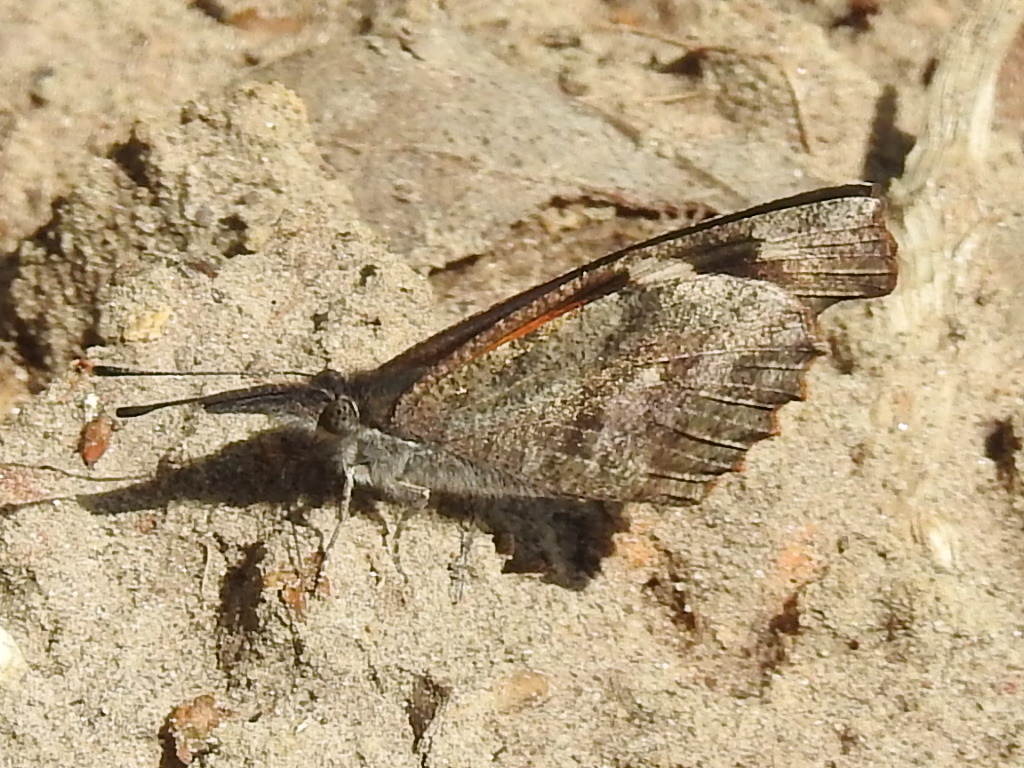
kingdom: Animalia
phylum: Arthropoda
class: Insecta
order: Lepidoptera
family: Nymphalidae
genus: Libytheana
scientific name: Libytheana carinenta
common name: American snout
